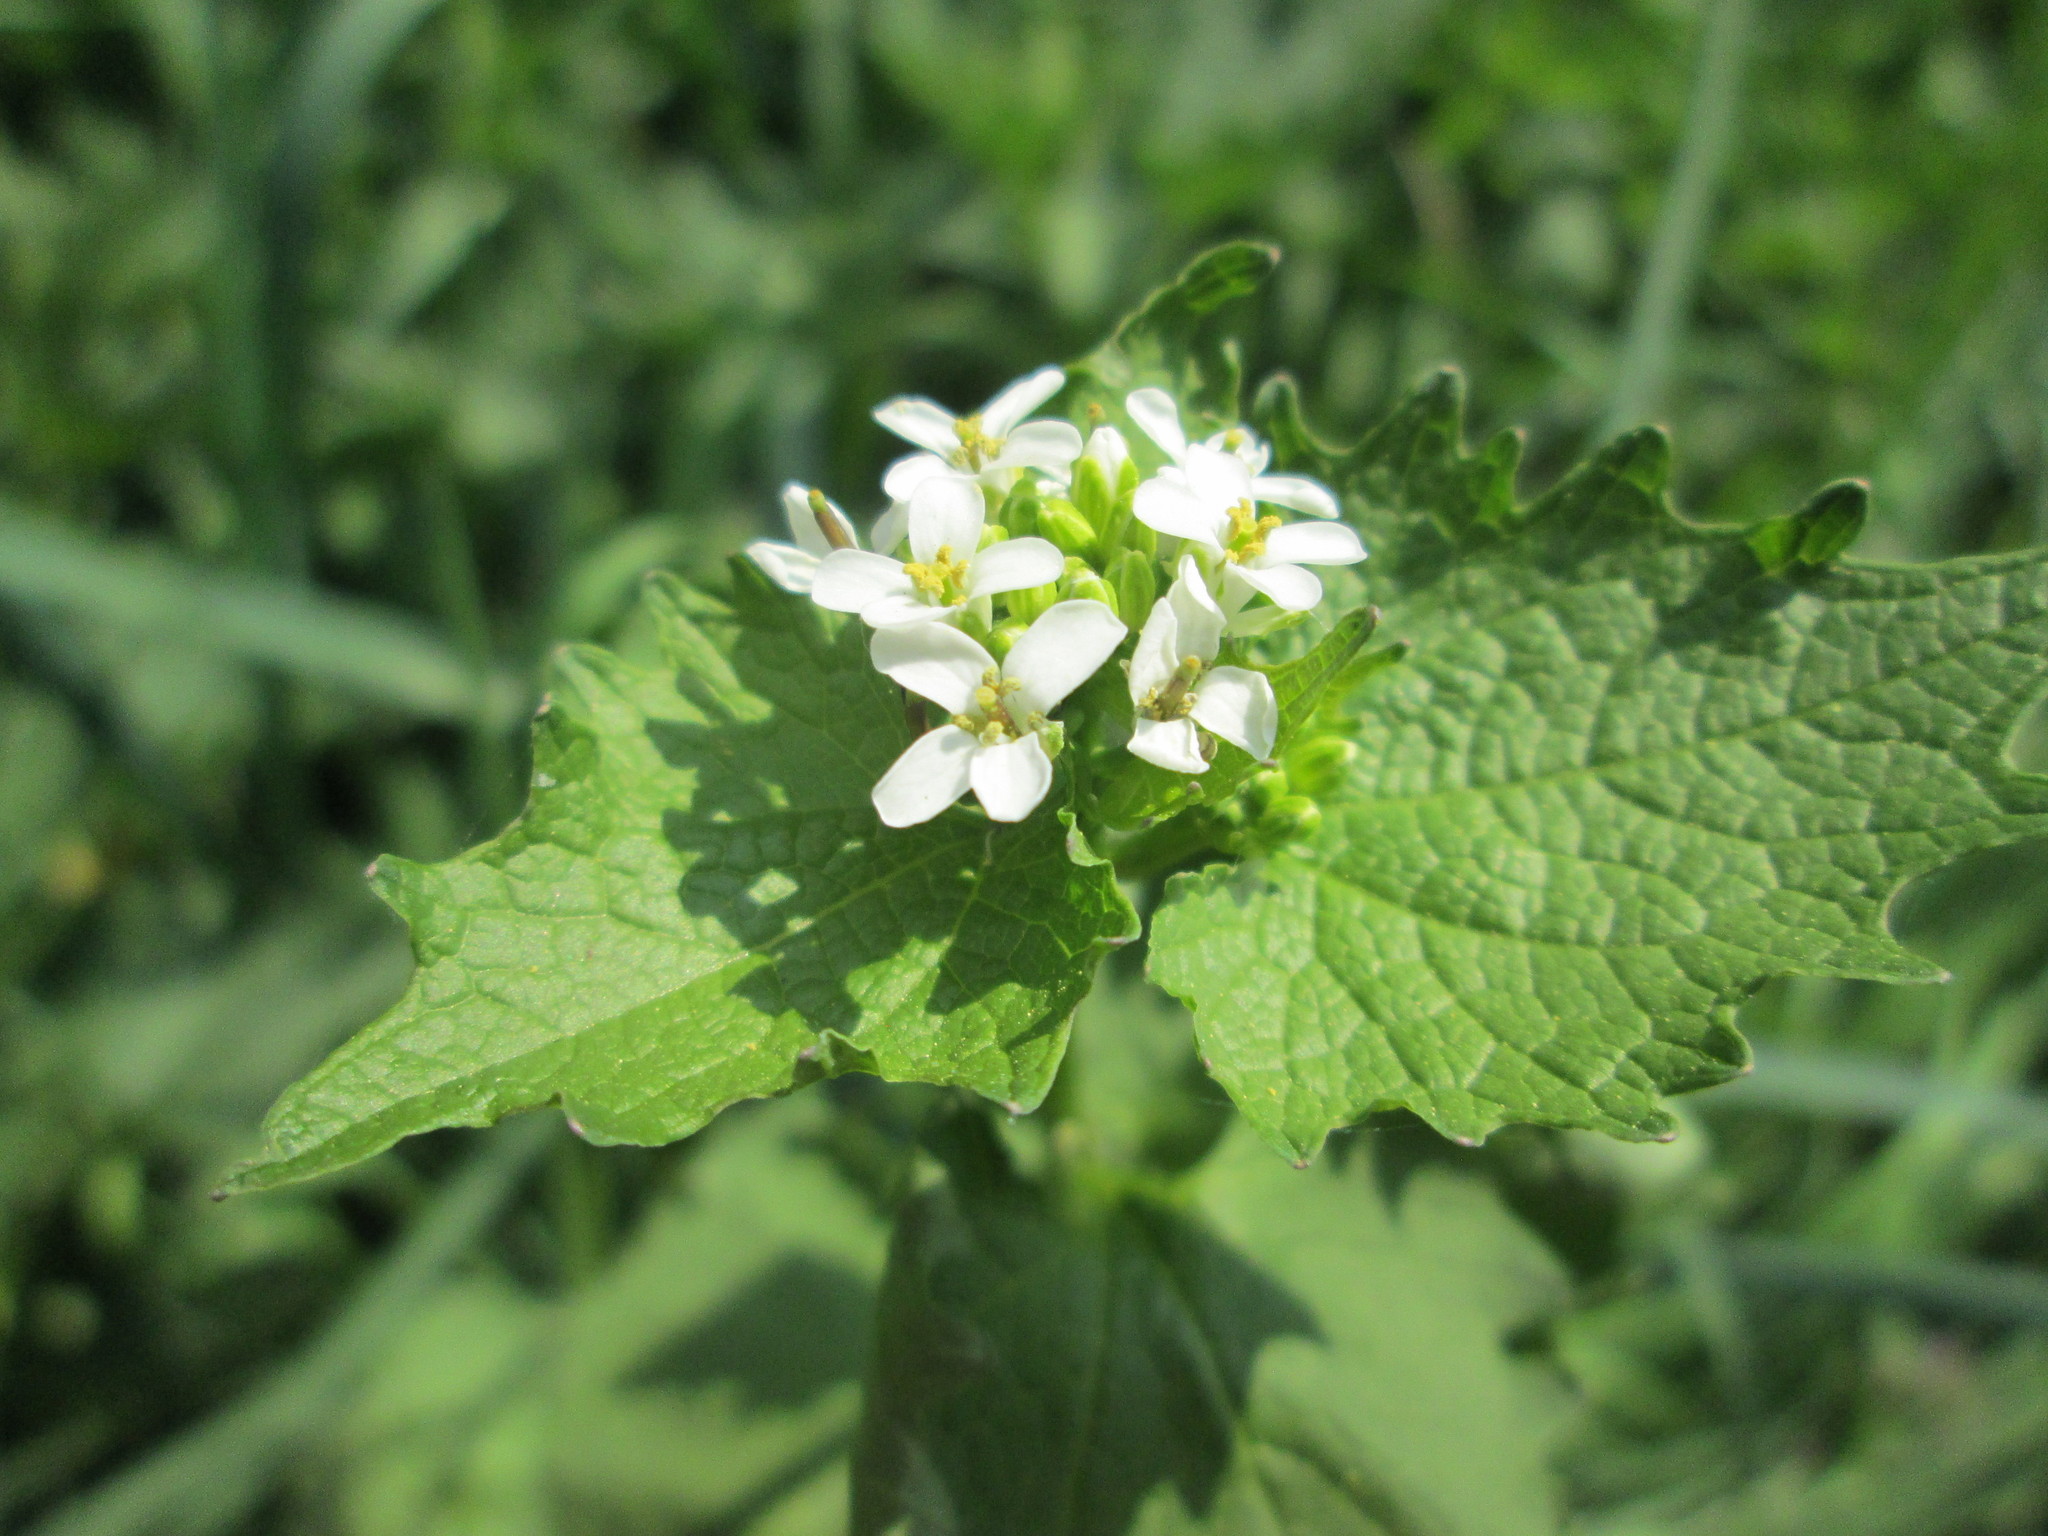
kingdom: Plantae
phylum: Tracheophyta
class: Magnoliopsida
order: Brassicales
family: Brassicaceae
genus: Alliaria
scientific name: Alliaria petiolata
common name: Garlic mustard
